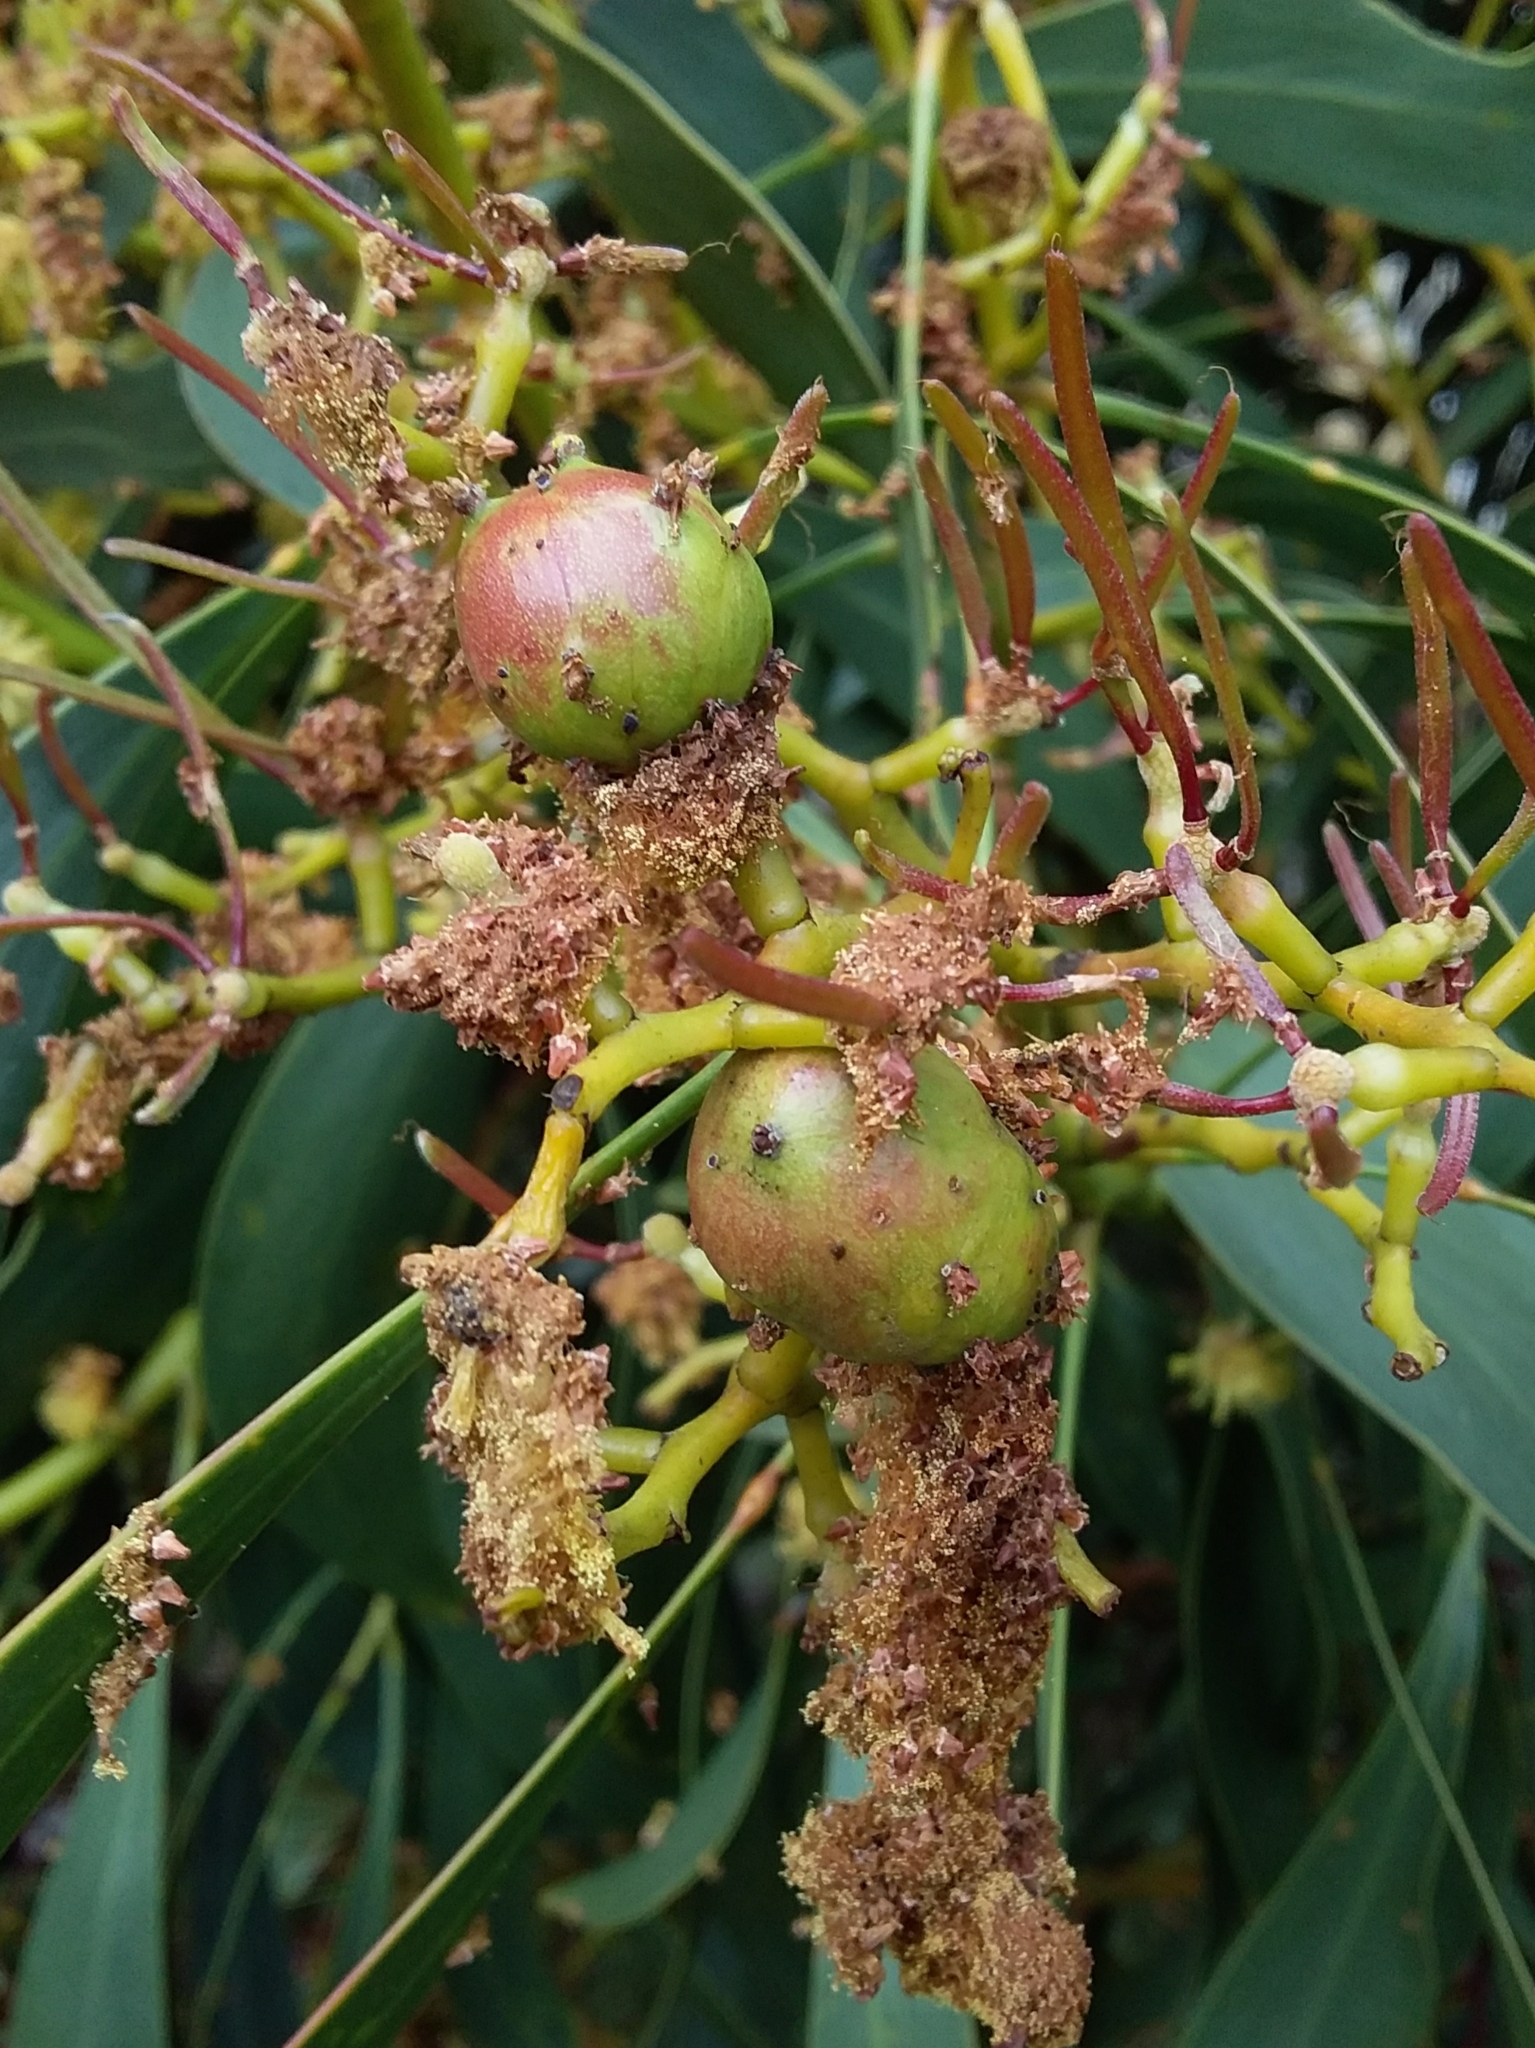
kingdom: Animalia
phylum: Arthropoda
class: Insecta
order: Hymenoptera
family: Pteromalidae
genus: Trichilogaster
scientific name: Trichilogaster signiventris
